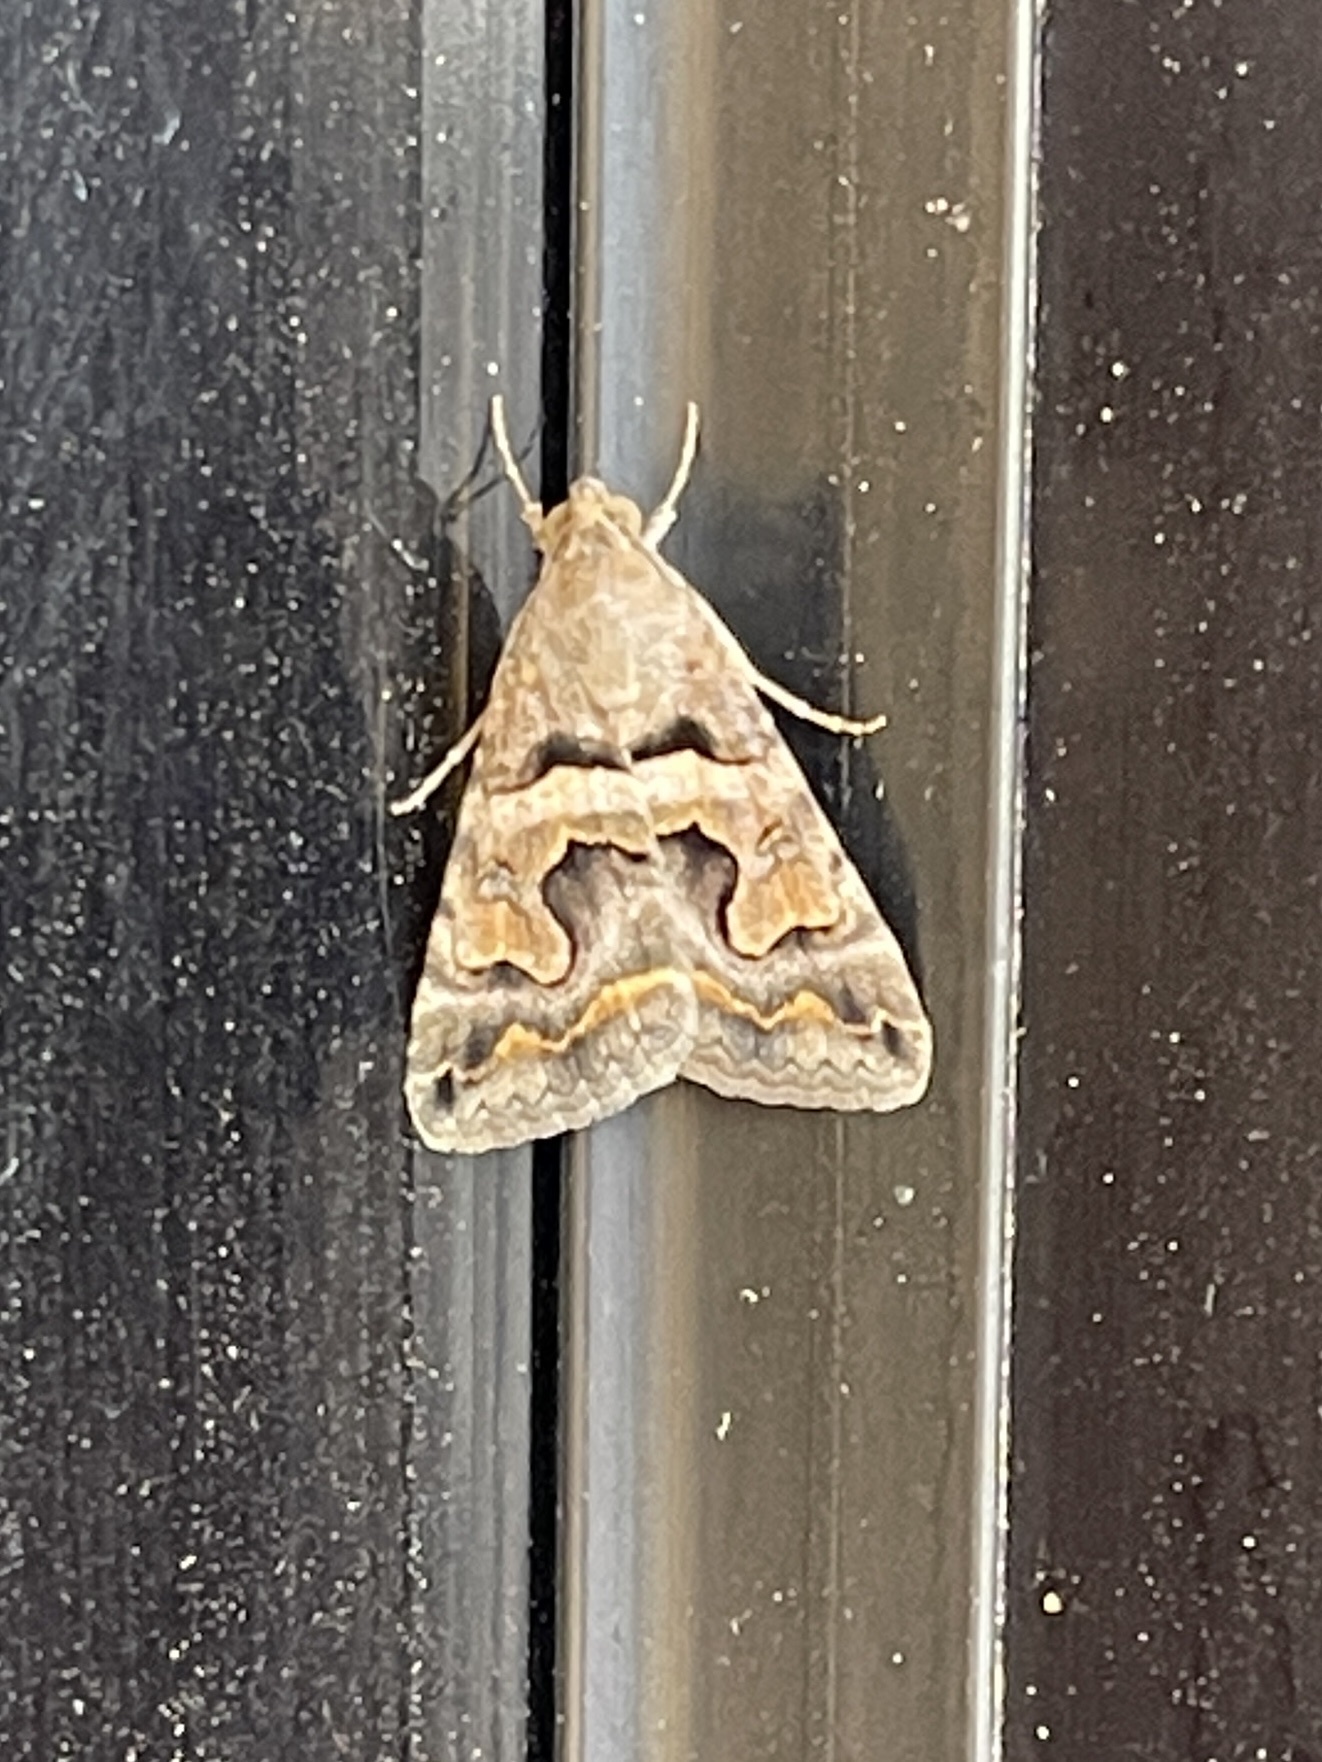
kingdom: Animalia
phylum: Arthropoda
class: Insecta
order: Lepidoptera
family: Erebidae
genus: Bulia
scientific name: Bulia deducta
